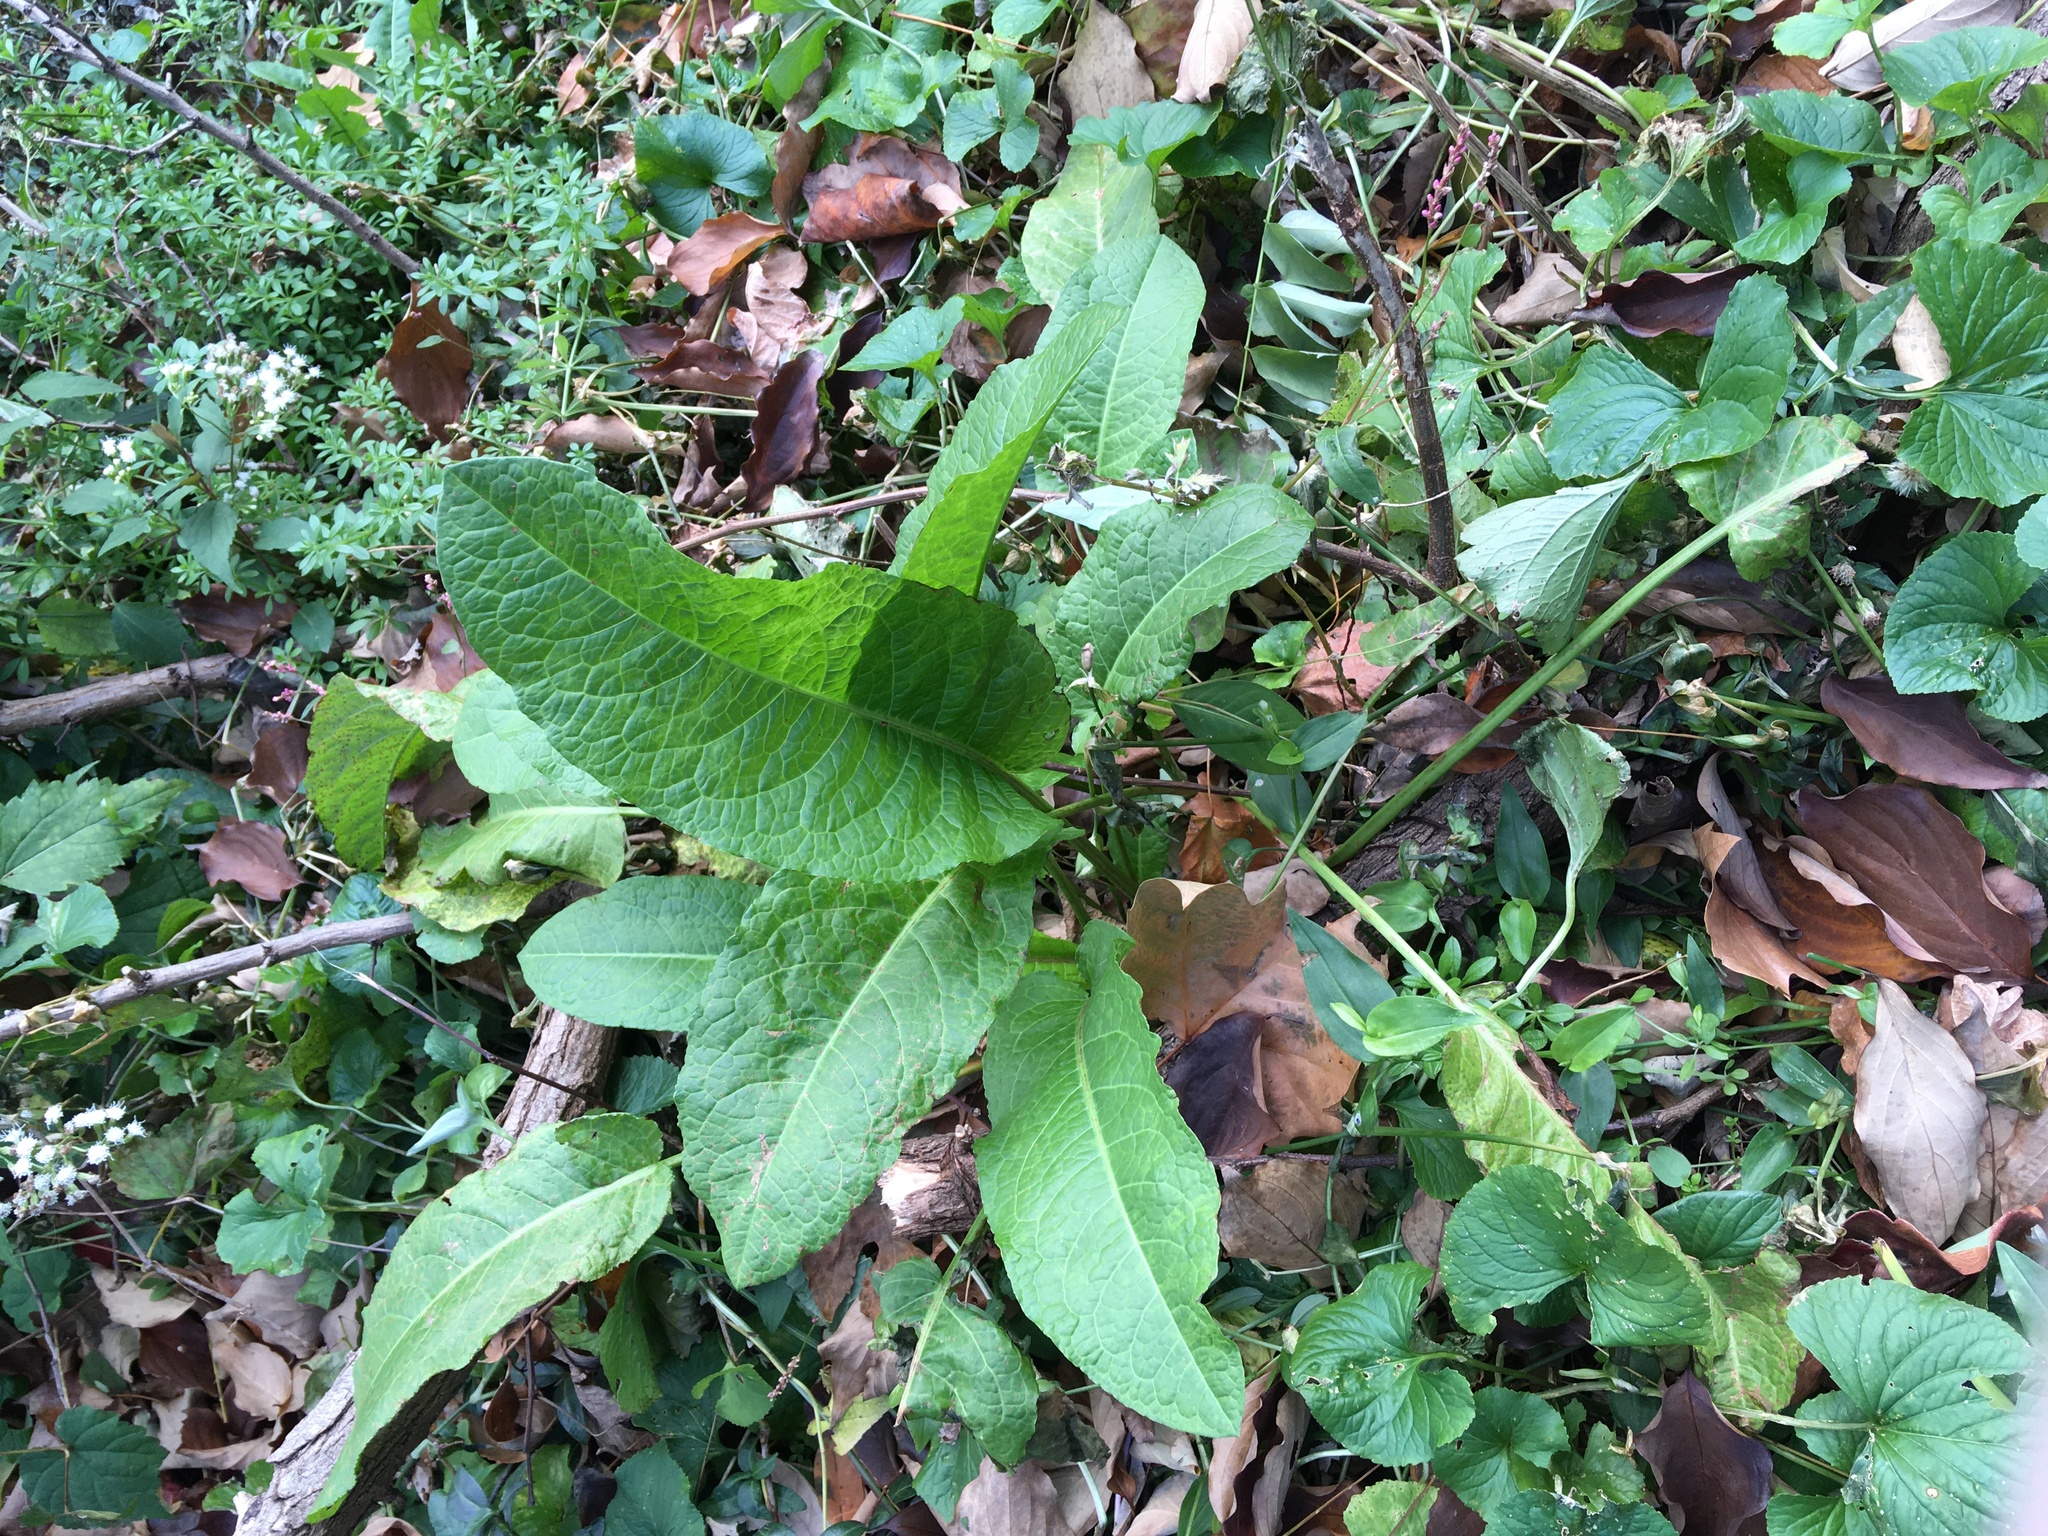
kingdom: Plantae
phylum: Tracheophyta
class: Magnoliopsida
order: Caryophyllales
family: Polygonaceae
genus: Rumex
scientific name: Rumex obtusifolius
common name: Bitter dock
